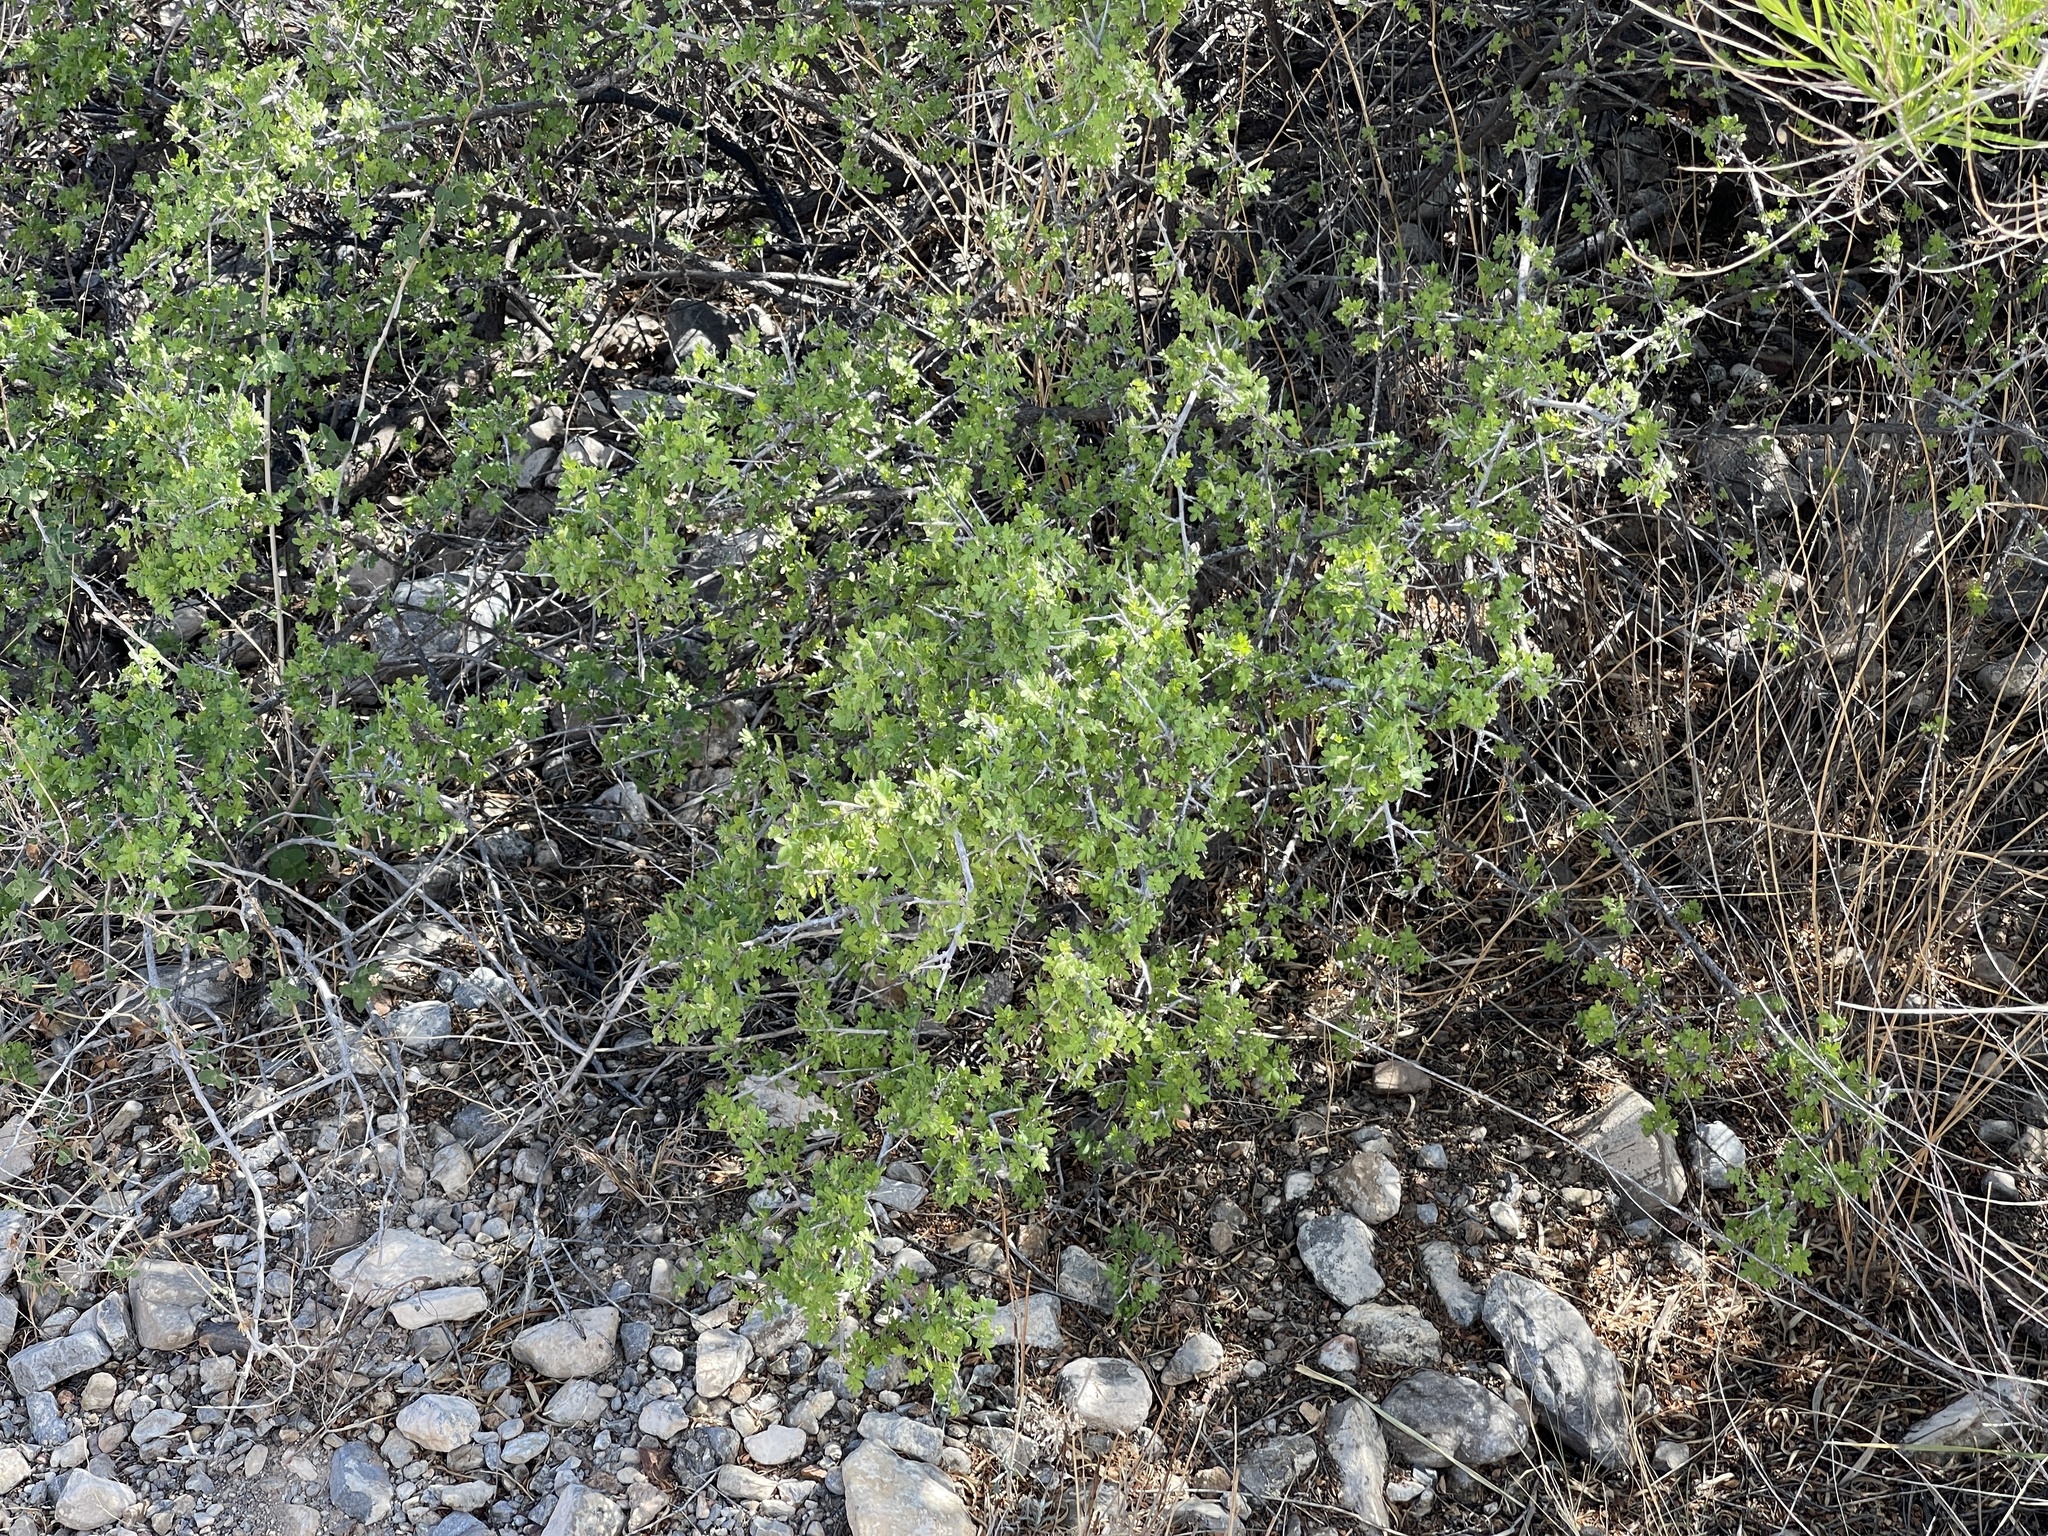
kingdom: Plantae
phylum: Tracheophyta
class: Magnoliopsida
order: Sapindales
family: Anacardiaceae
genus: Rhus
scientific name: Rhus microphylla
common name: Desert sumac
